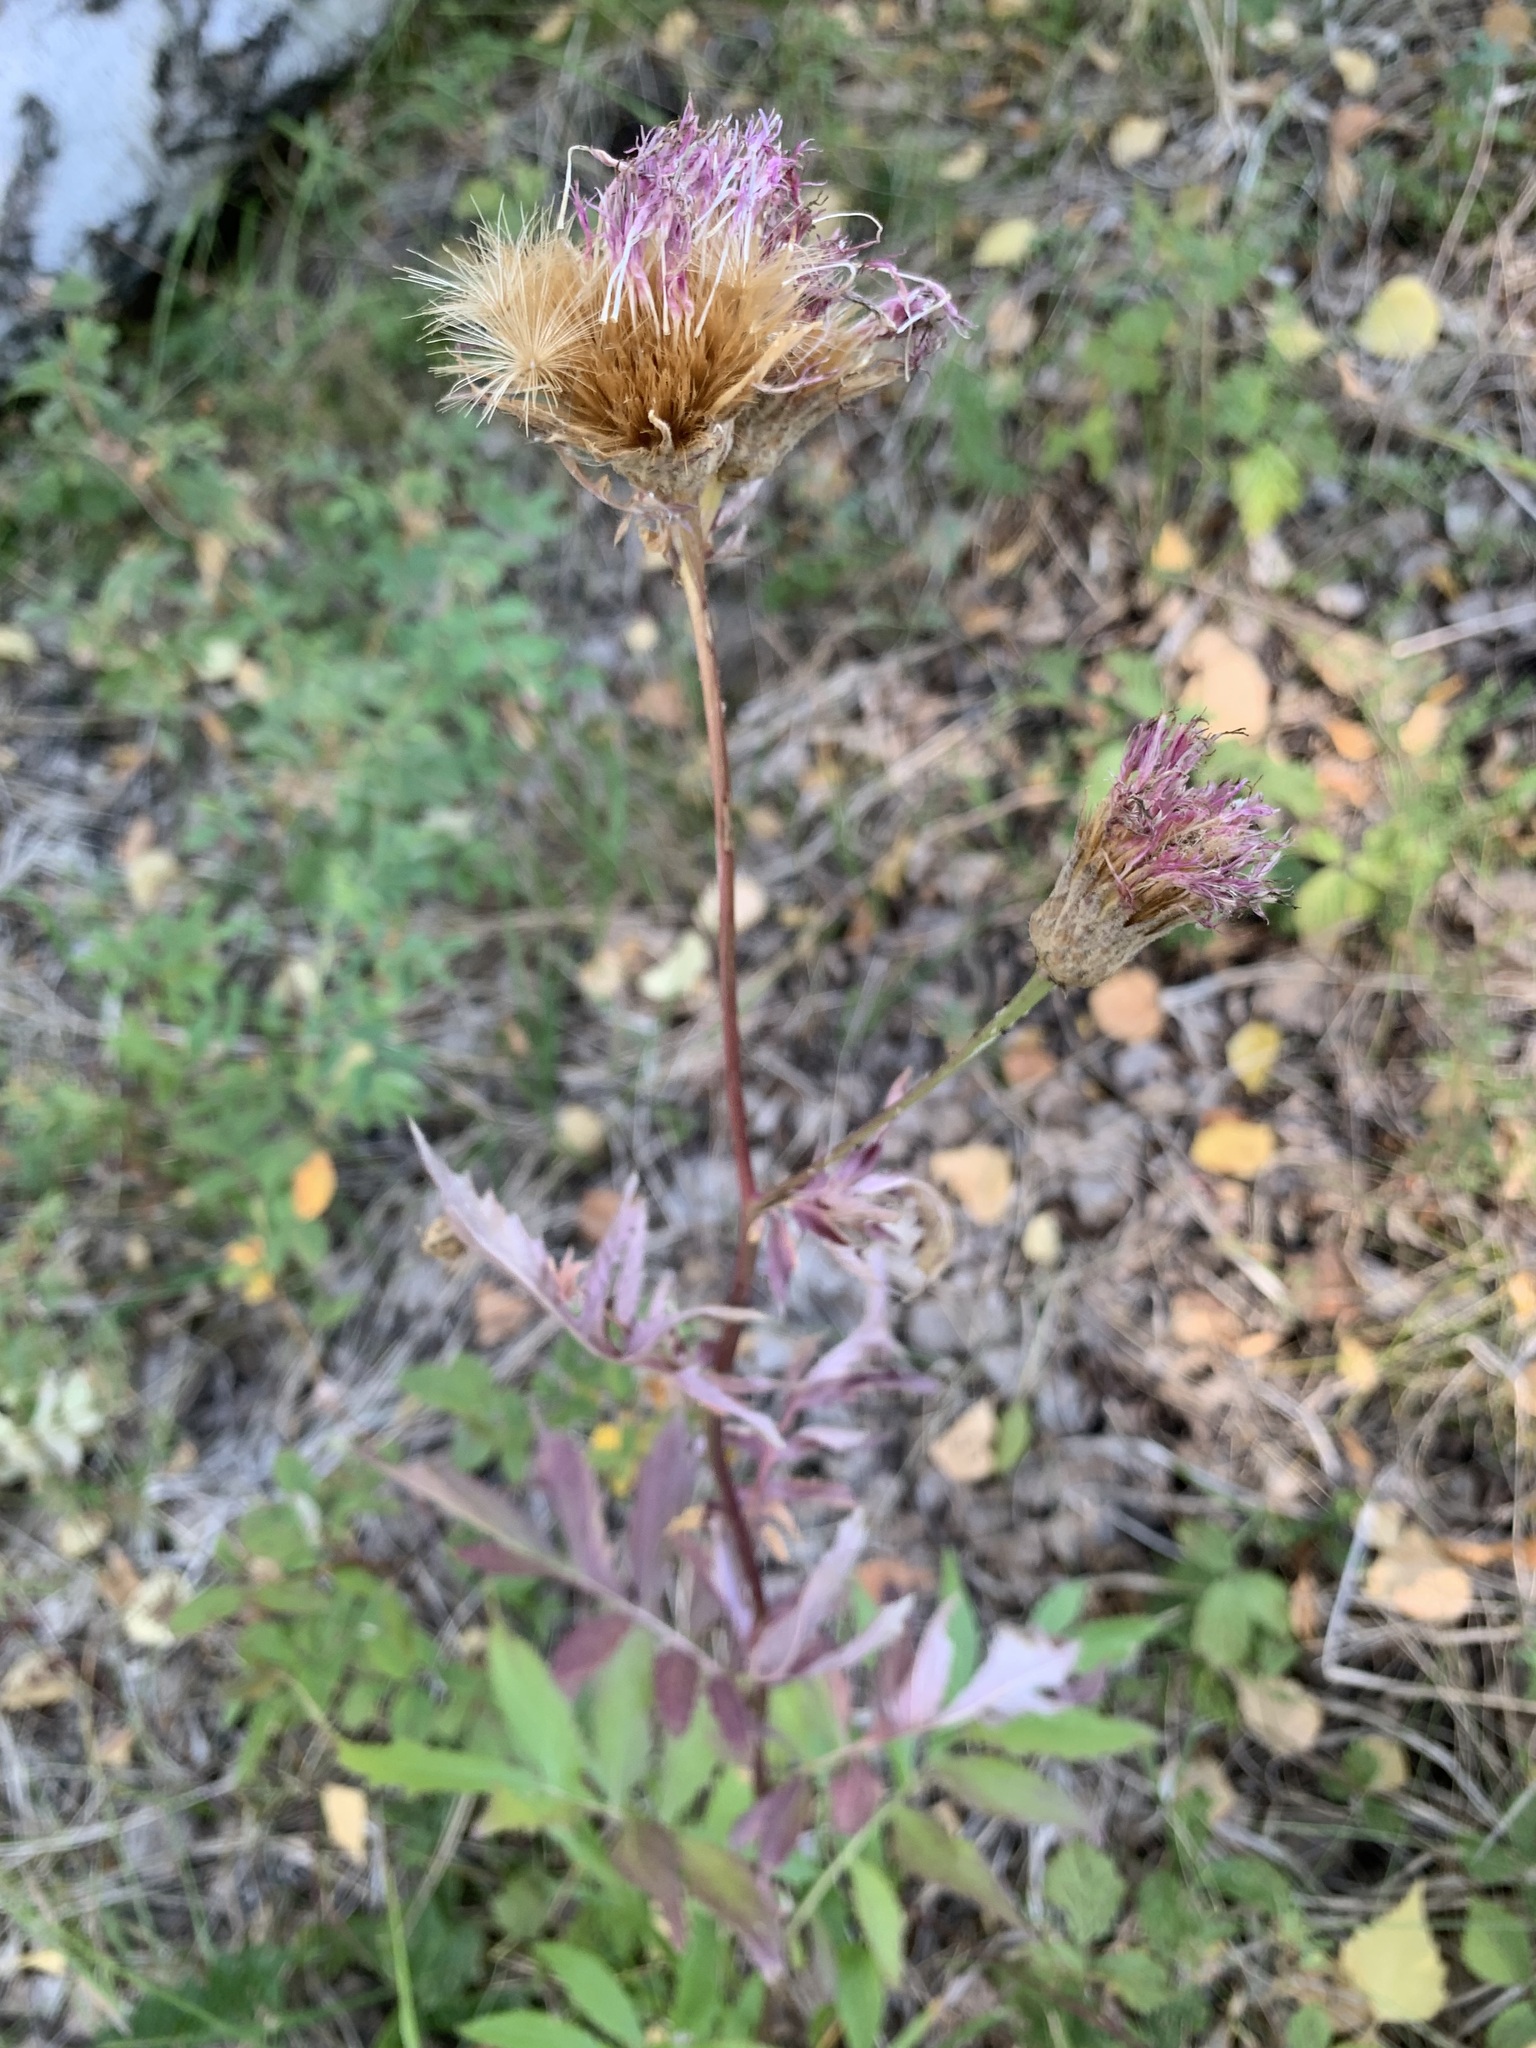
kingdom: Plantae
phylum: Tracheophyta
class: Magnoliopsida
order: Asterales
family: Asteraceae
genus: Serratula
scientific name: Serratula coronata
